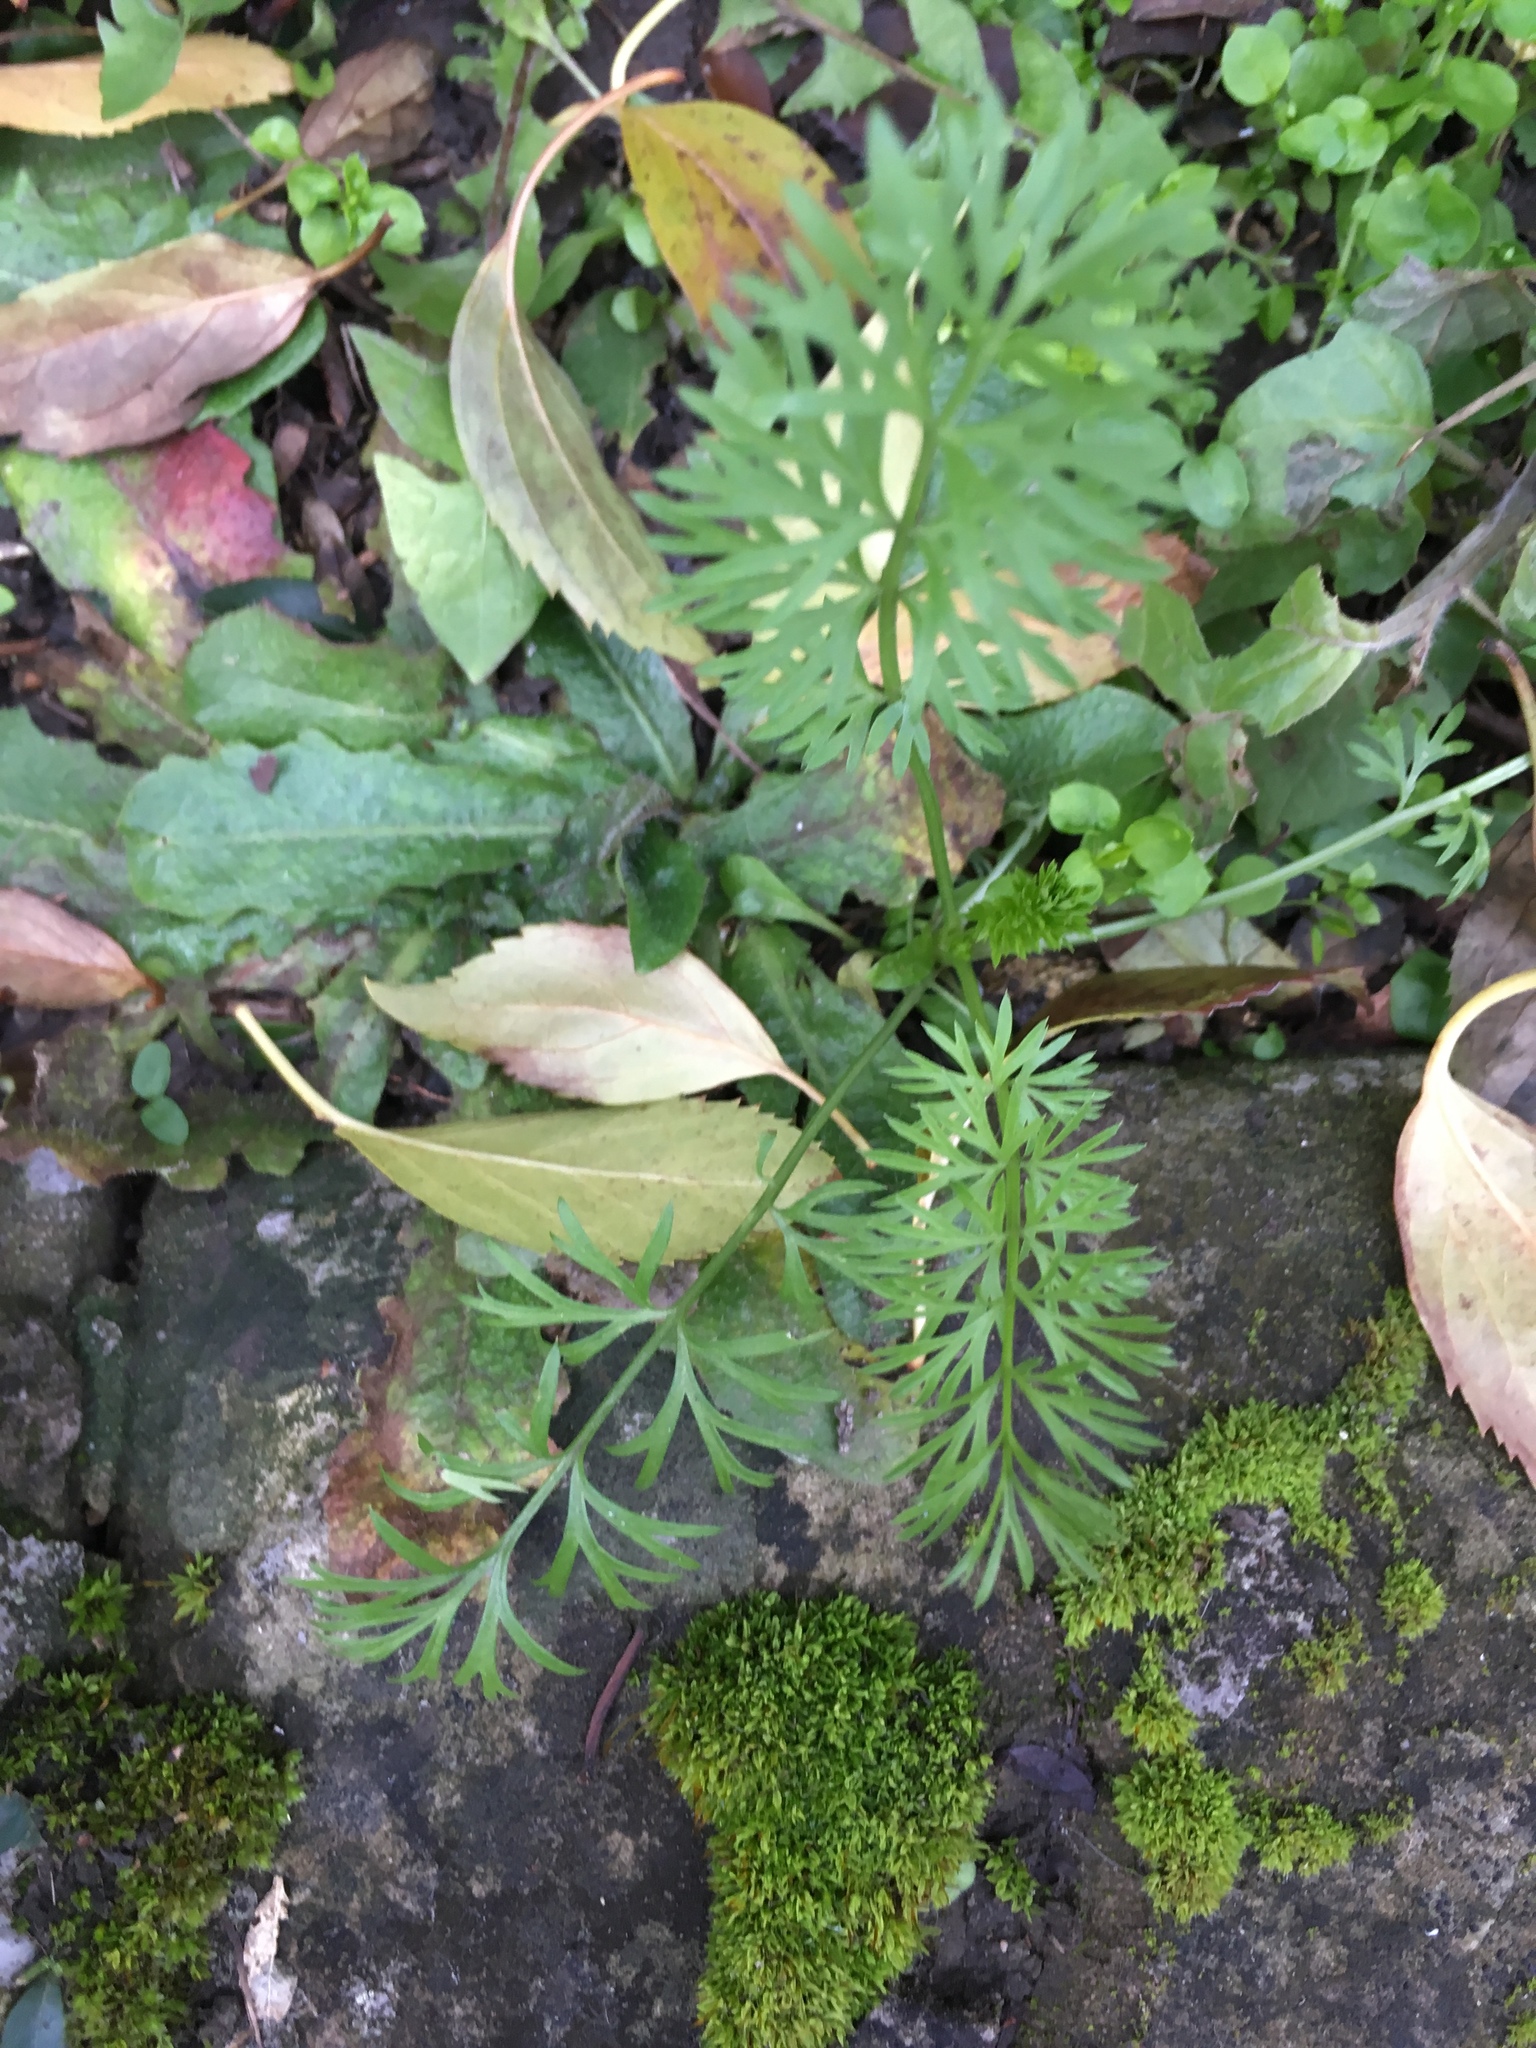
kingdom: Plantae
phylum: Tracheophyta
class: Magnoliopsida
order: Apiales
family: Apiaceae
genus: Daucus
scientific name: Daucus carota
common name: Wild carrot
